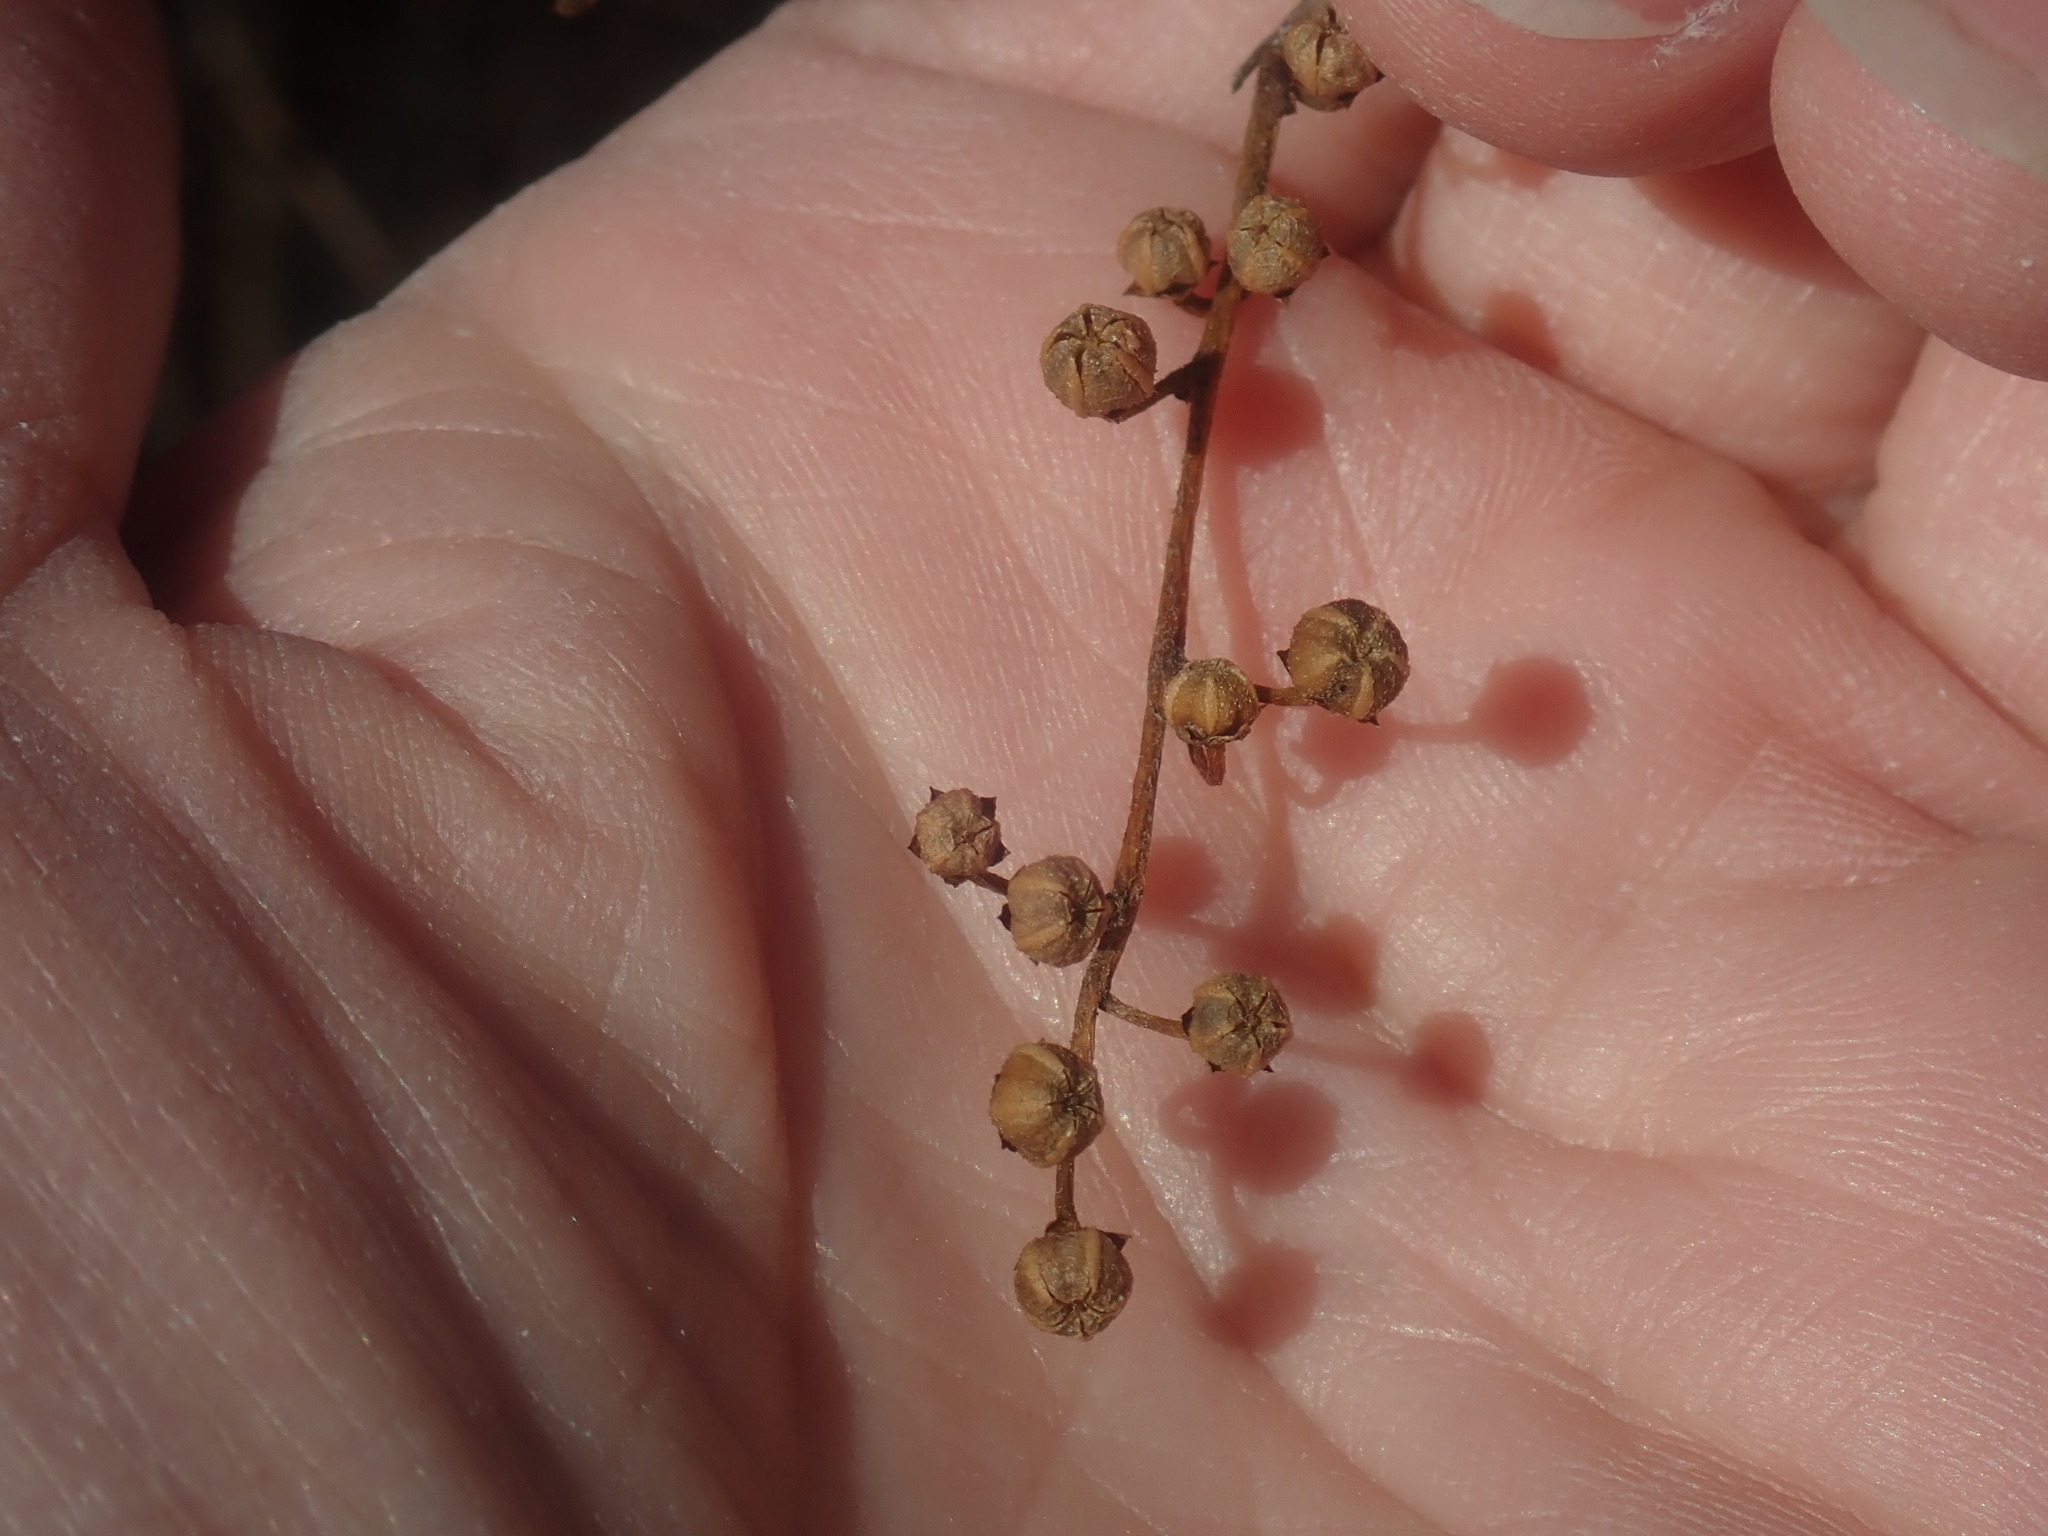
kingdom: Plantae
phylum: Tracheophyta
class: Magnoliopsida
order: Ericales
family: Ericaceae
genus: Lyonia
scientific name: Lyonia ligustrina
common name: Maleberry
